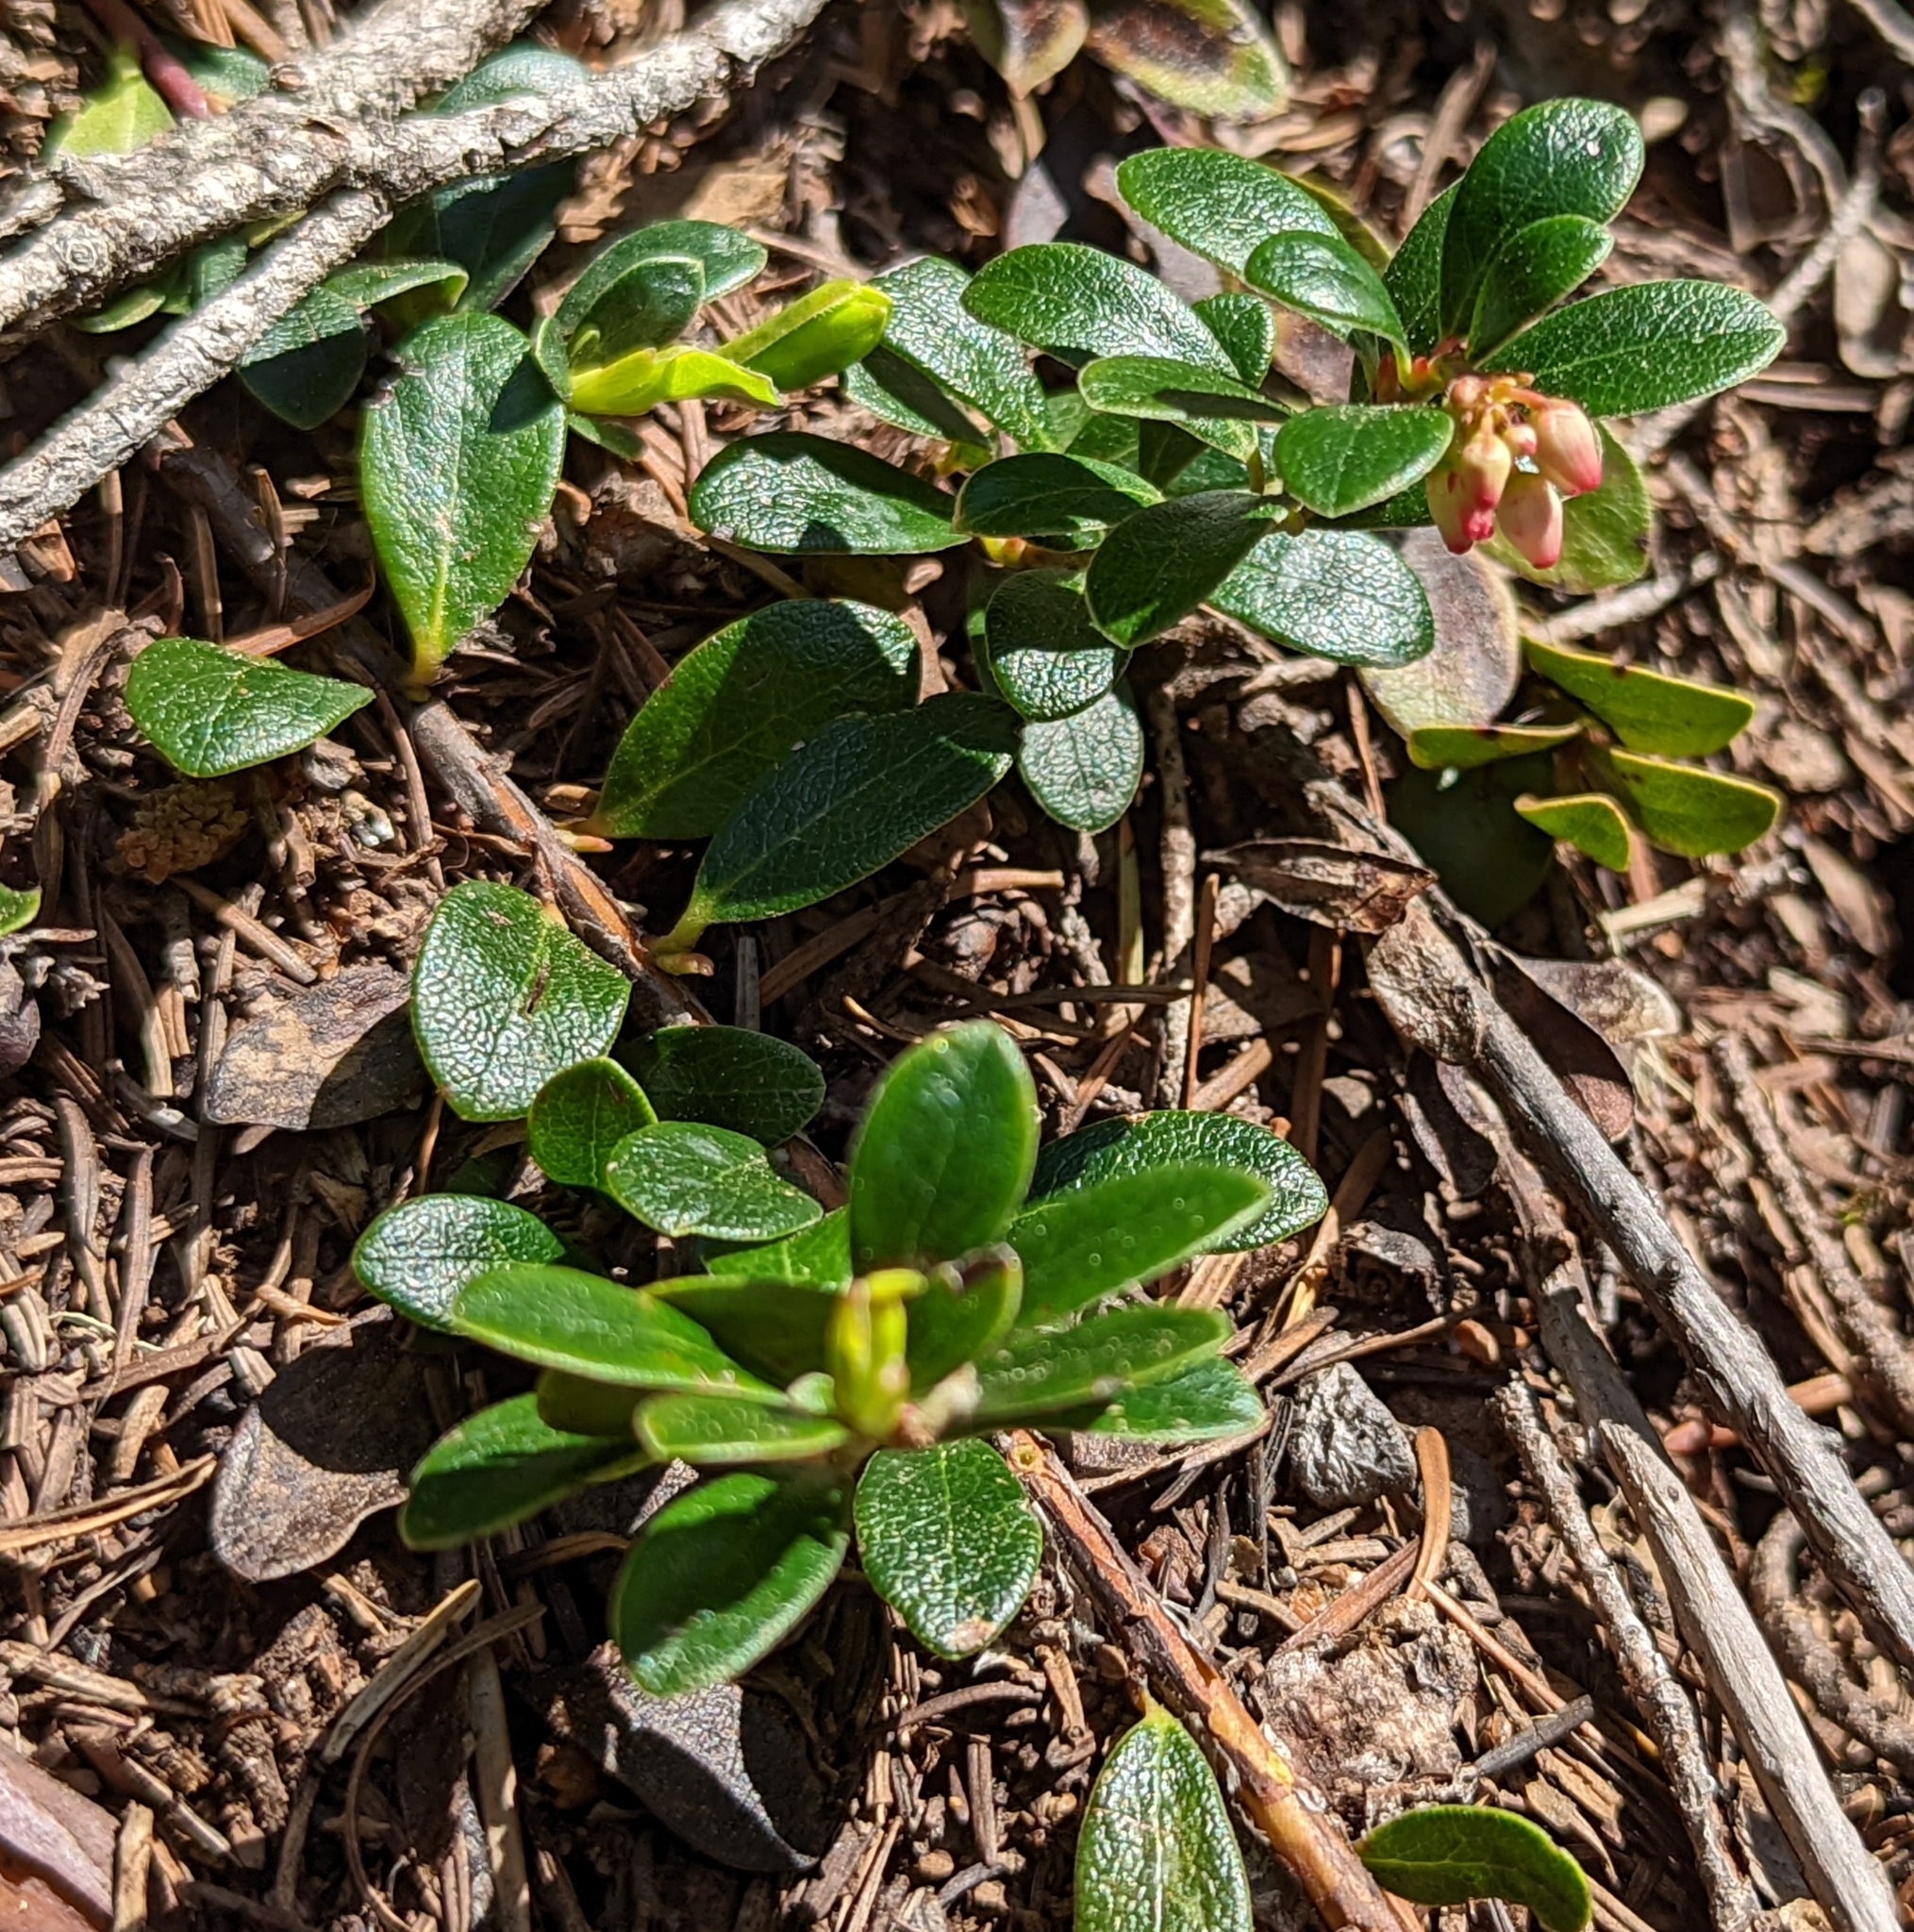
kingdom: Plantae
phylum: Tracheophyta
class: Magnoliopsida
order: Ericales
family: Ericaceae
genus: Arctostaphylos
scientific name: Arctostaphylos uva-ursi
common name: Bearberry
